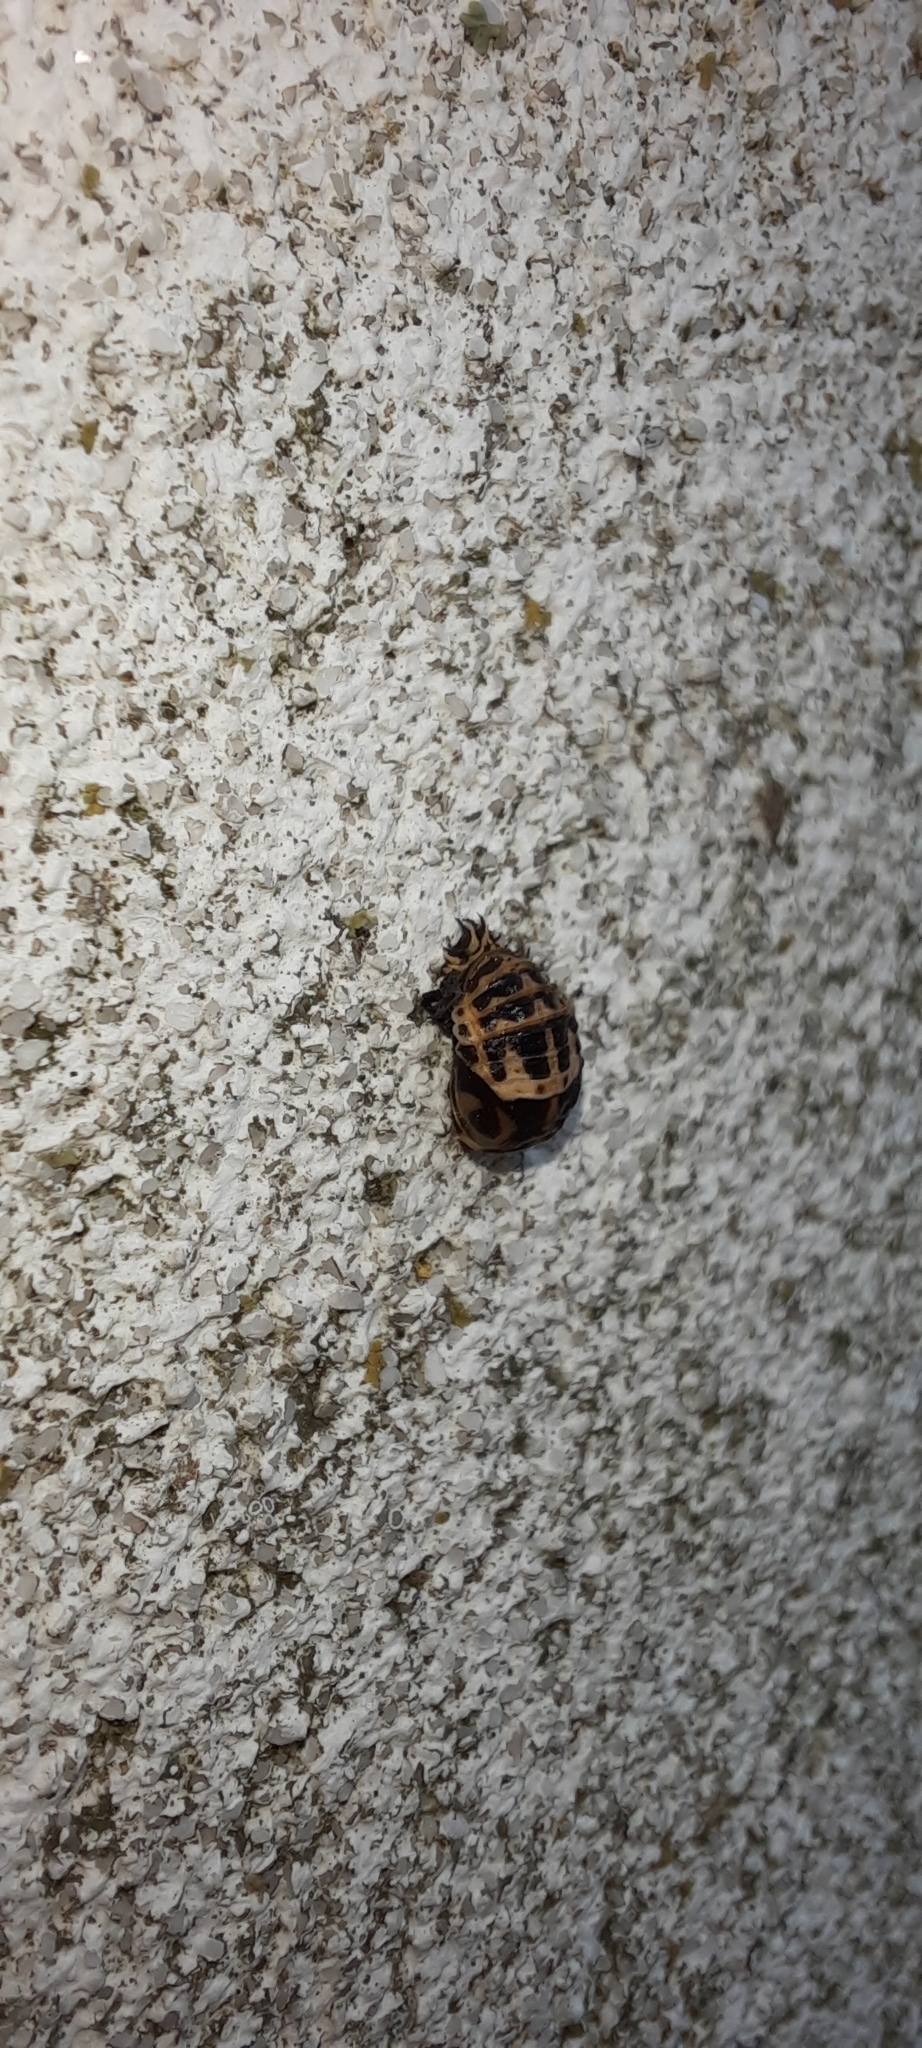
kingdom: Animalia
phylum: Arthropoda
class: Insecta
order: Coleoptera
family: Coccinellidae
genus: Harmonia
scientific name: Harmonia conformis
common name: Common spotted ladybird beetle
